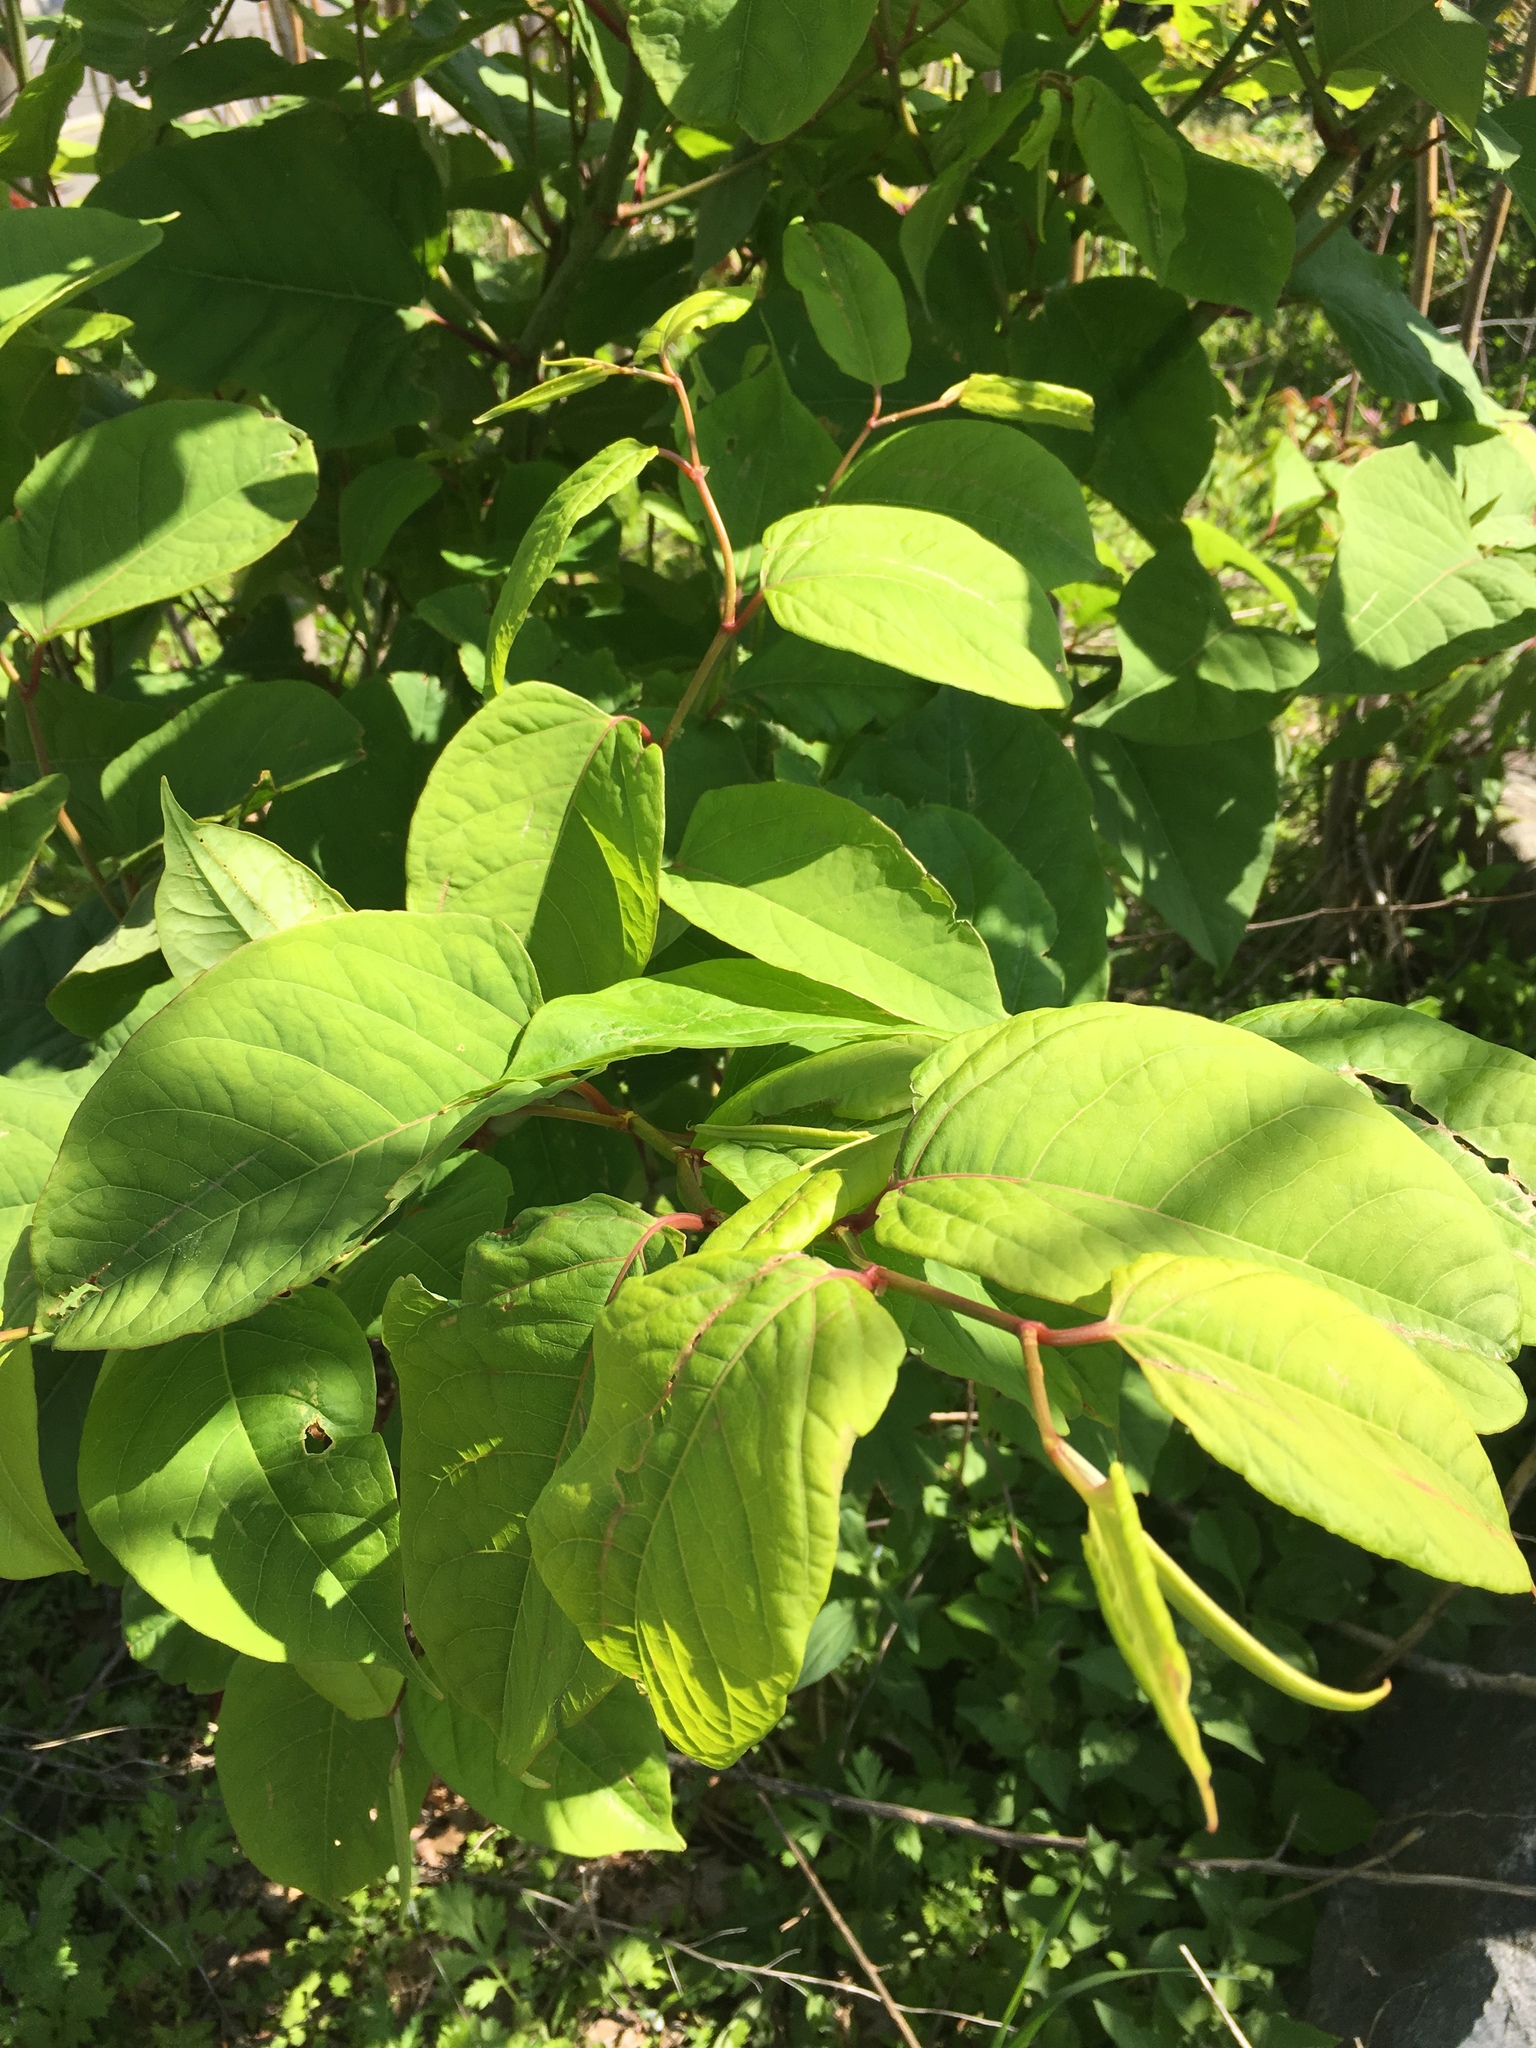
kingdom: Plantae
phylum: Tracheophyta
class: Magnoliopsida
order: Caryophyllales
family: Polygonaceae
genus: Reynoutria
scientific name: Reynoutria japonica
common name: Japanese knotweed
